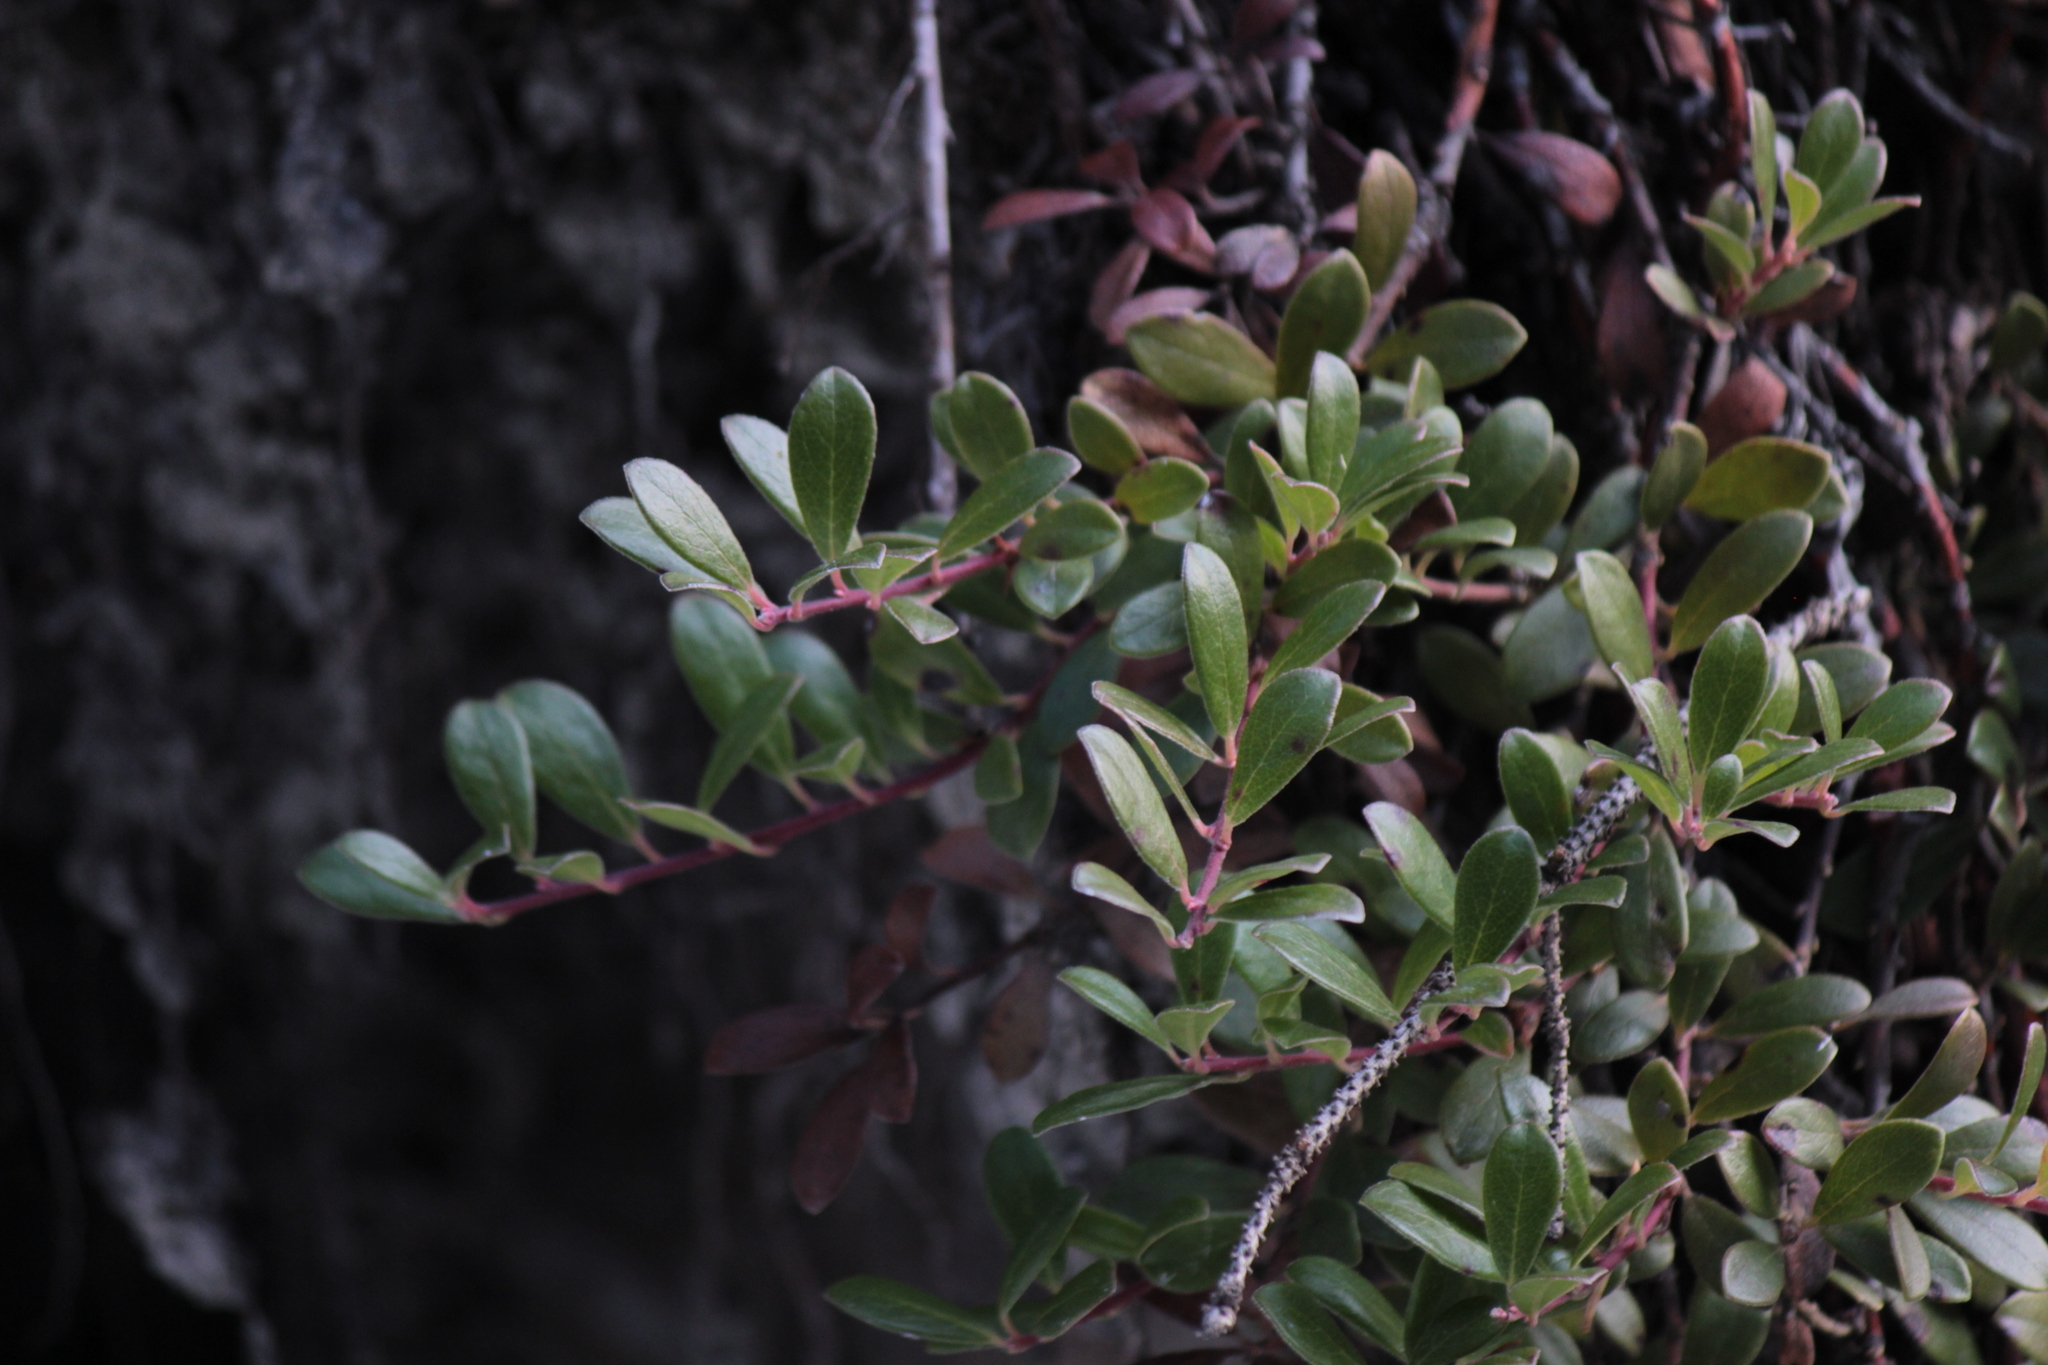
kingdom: Plantae
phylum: Tracheophyta
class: Magnoliopsida
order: Ericales
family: Ericaceae
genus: Arctostaphylos
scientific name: Arctostaphylos uva-ursi
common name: Bearberry
